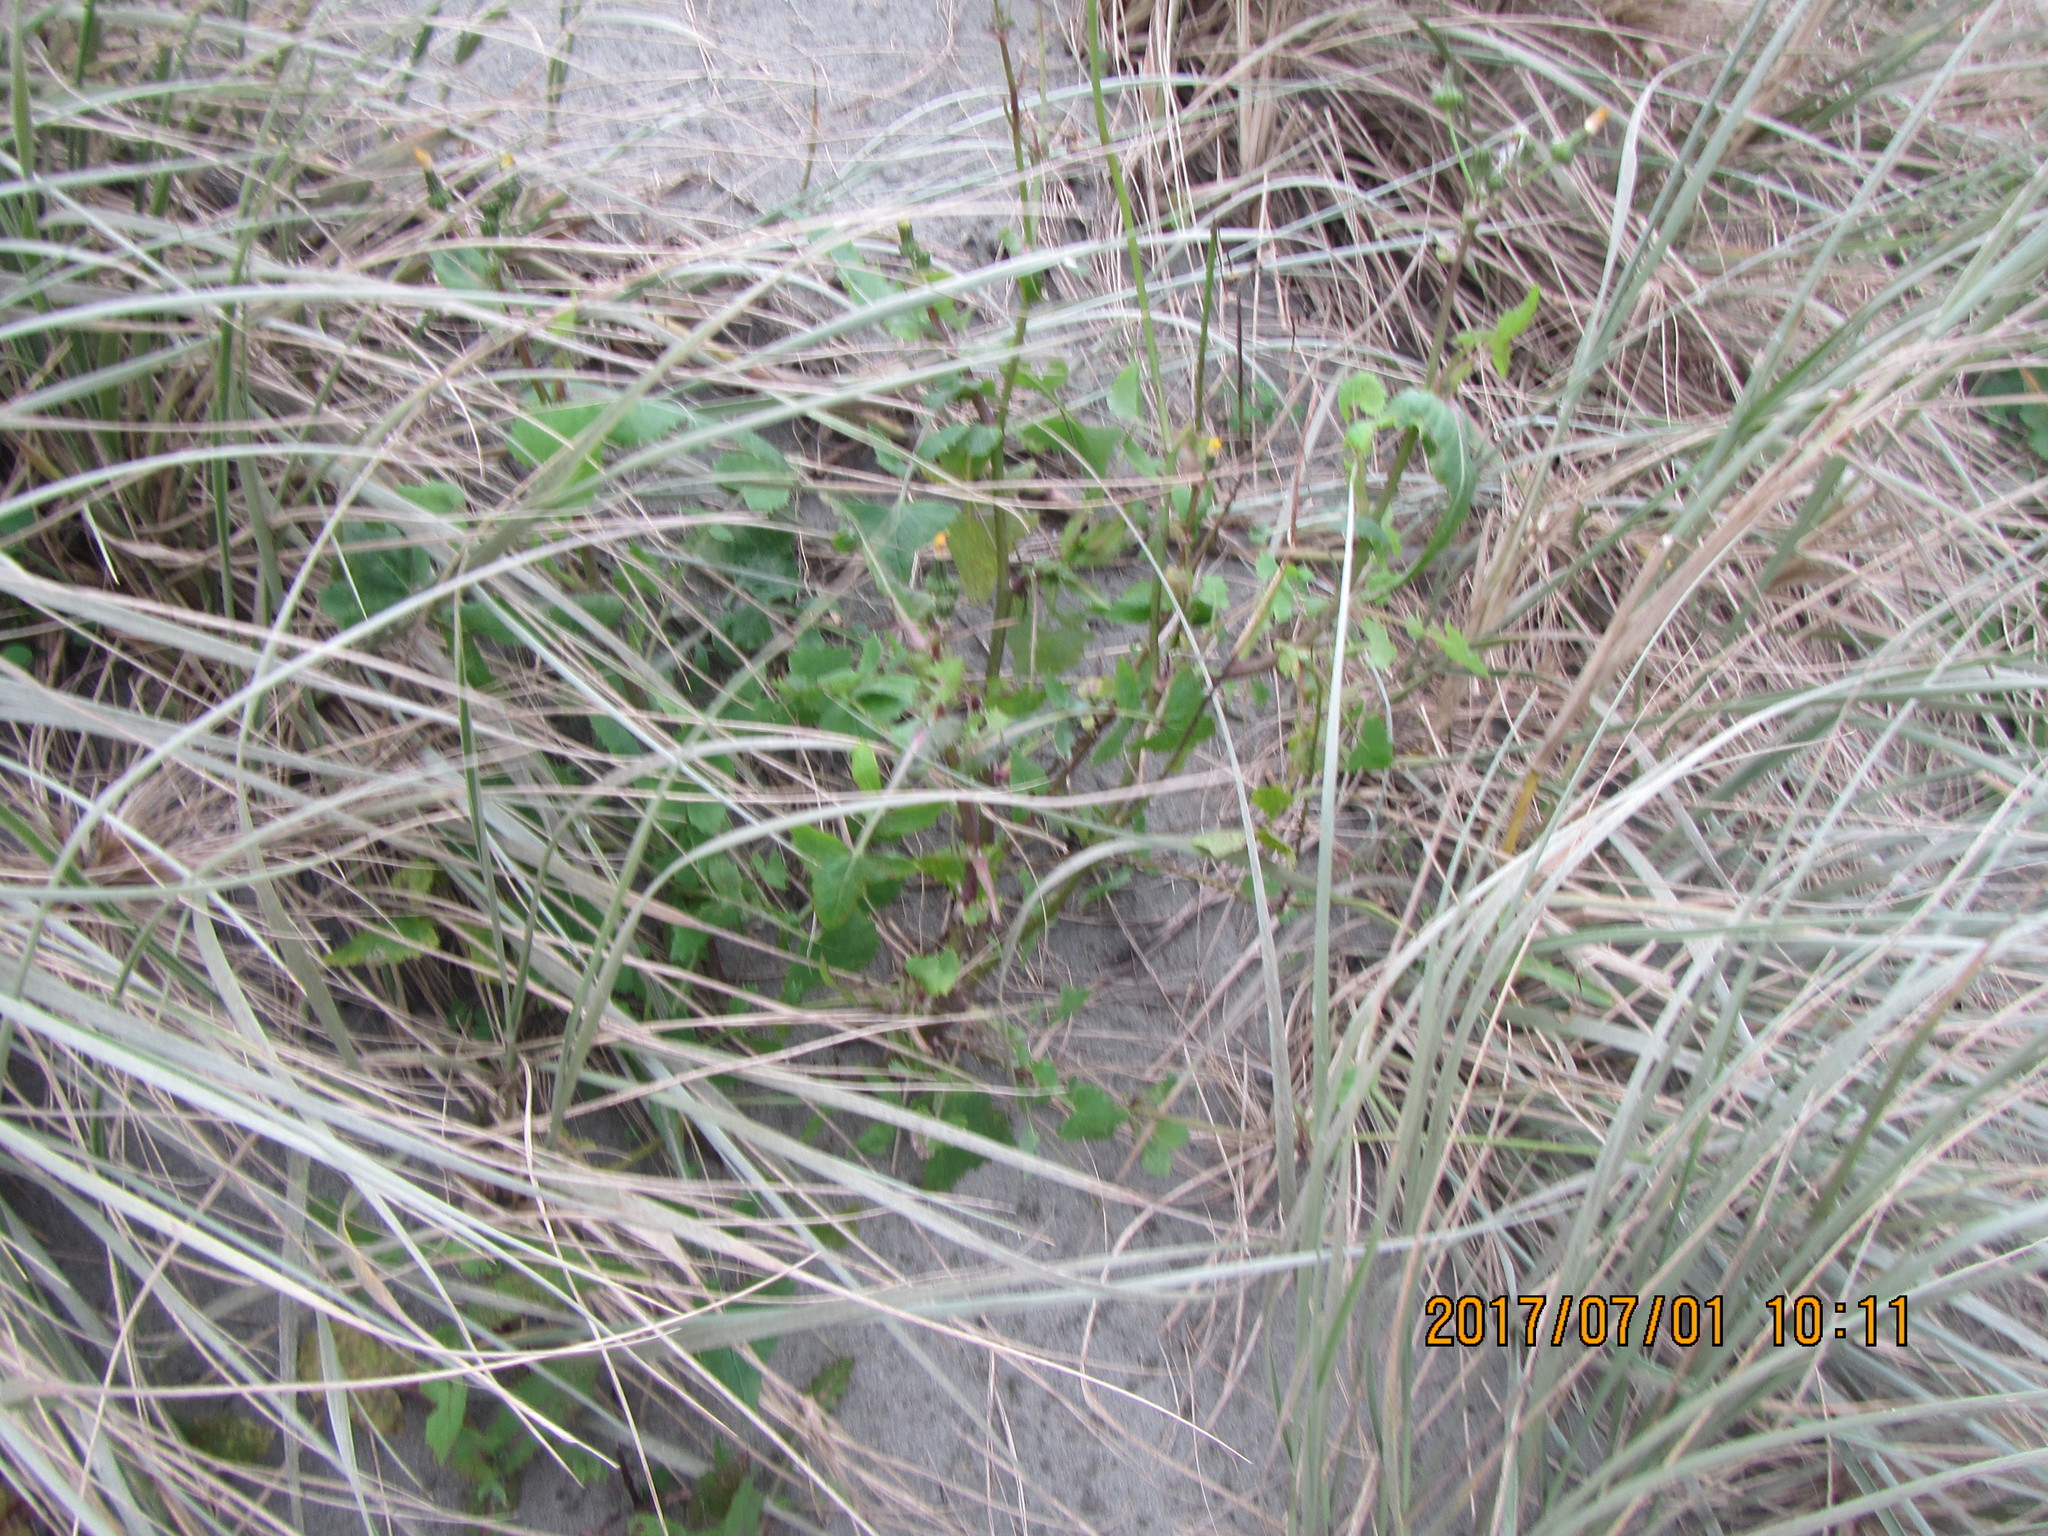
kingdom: Plantae
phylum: Tracheophyta
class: Magnoliopsida
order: Asterales
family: Asteraceae
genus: Sonchus
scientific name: Sonchus oleraceus
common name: Common sowthistle
